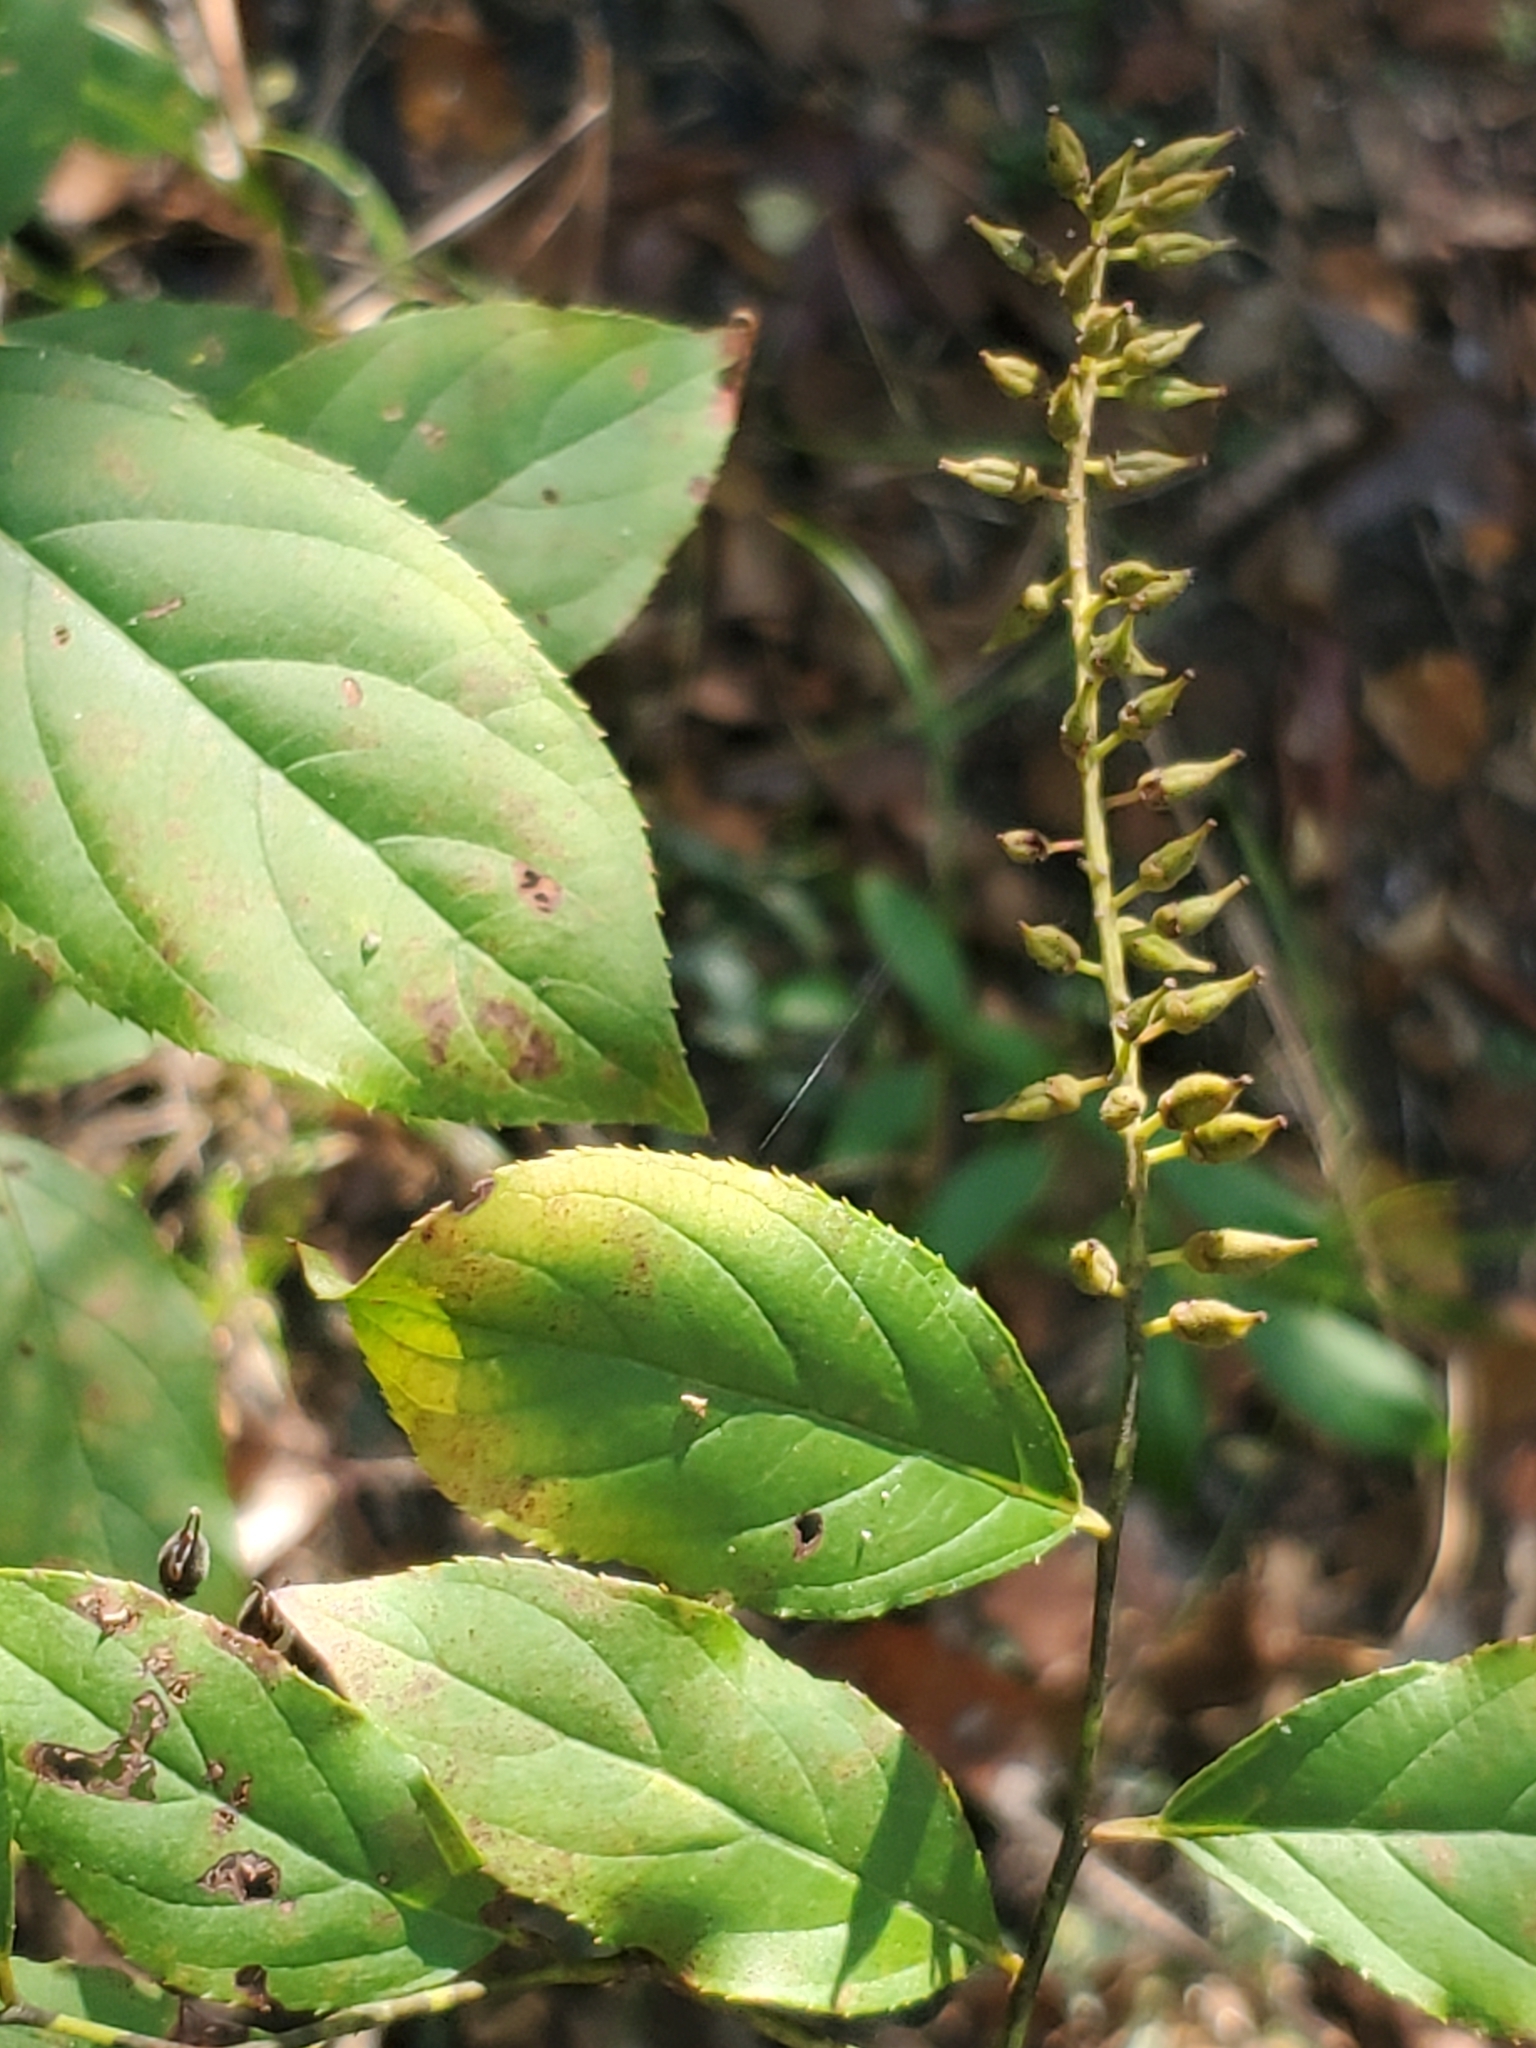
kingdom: Plantae
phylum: Tracheophyta
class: Magnoliopsida
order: Saxifragales
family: Iteaceae
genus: Itea
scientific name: Itea virginica
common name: Sweetspire
